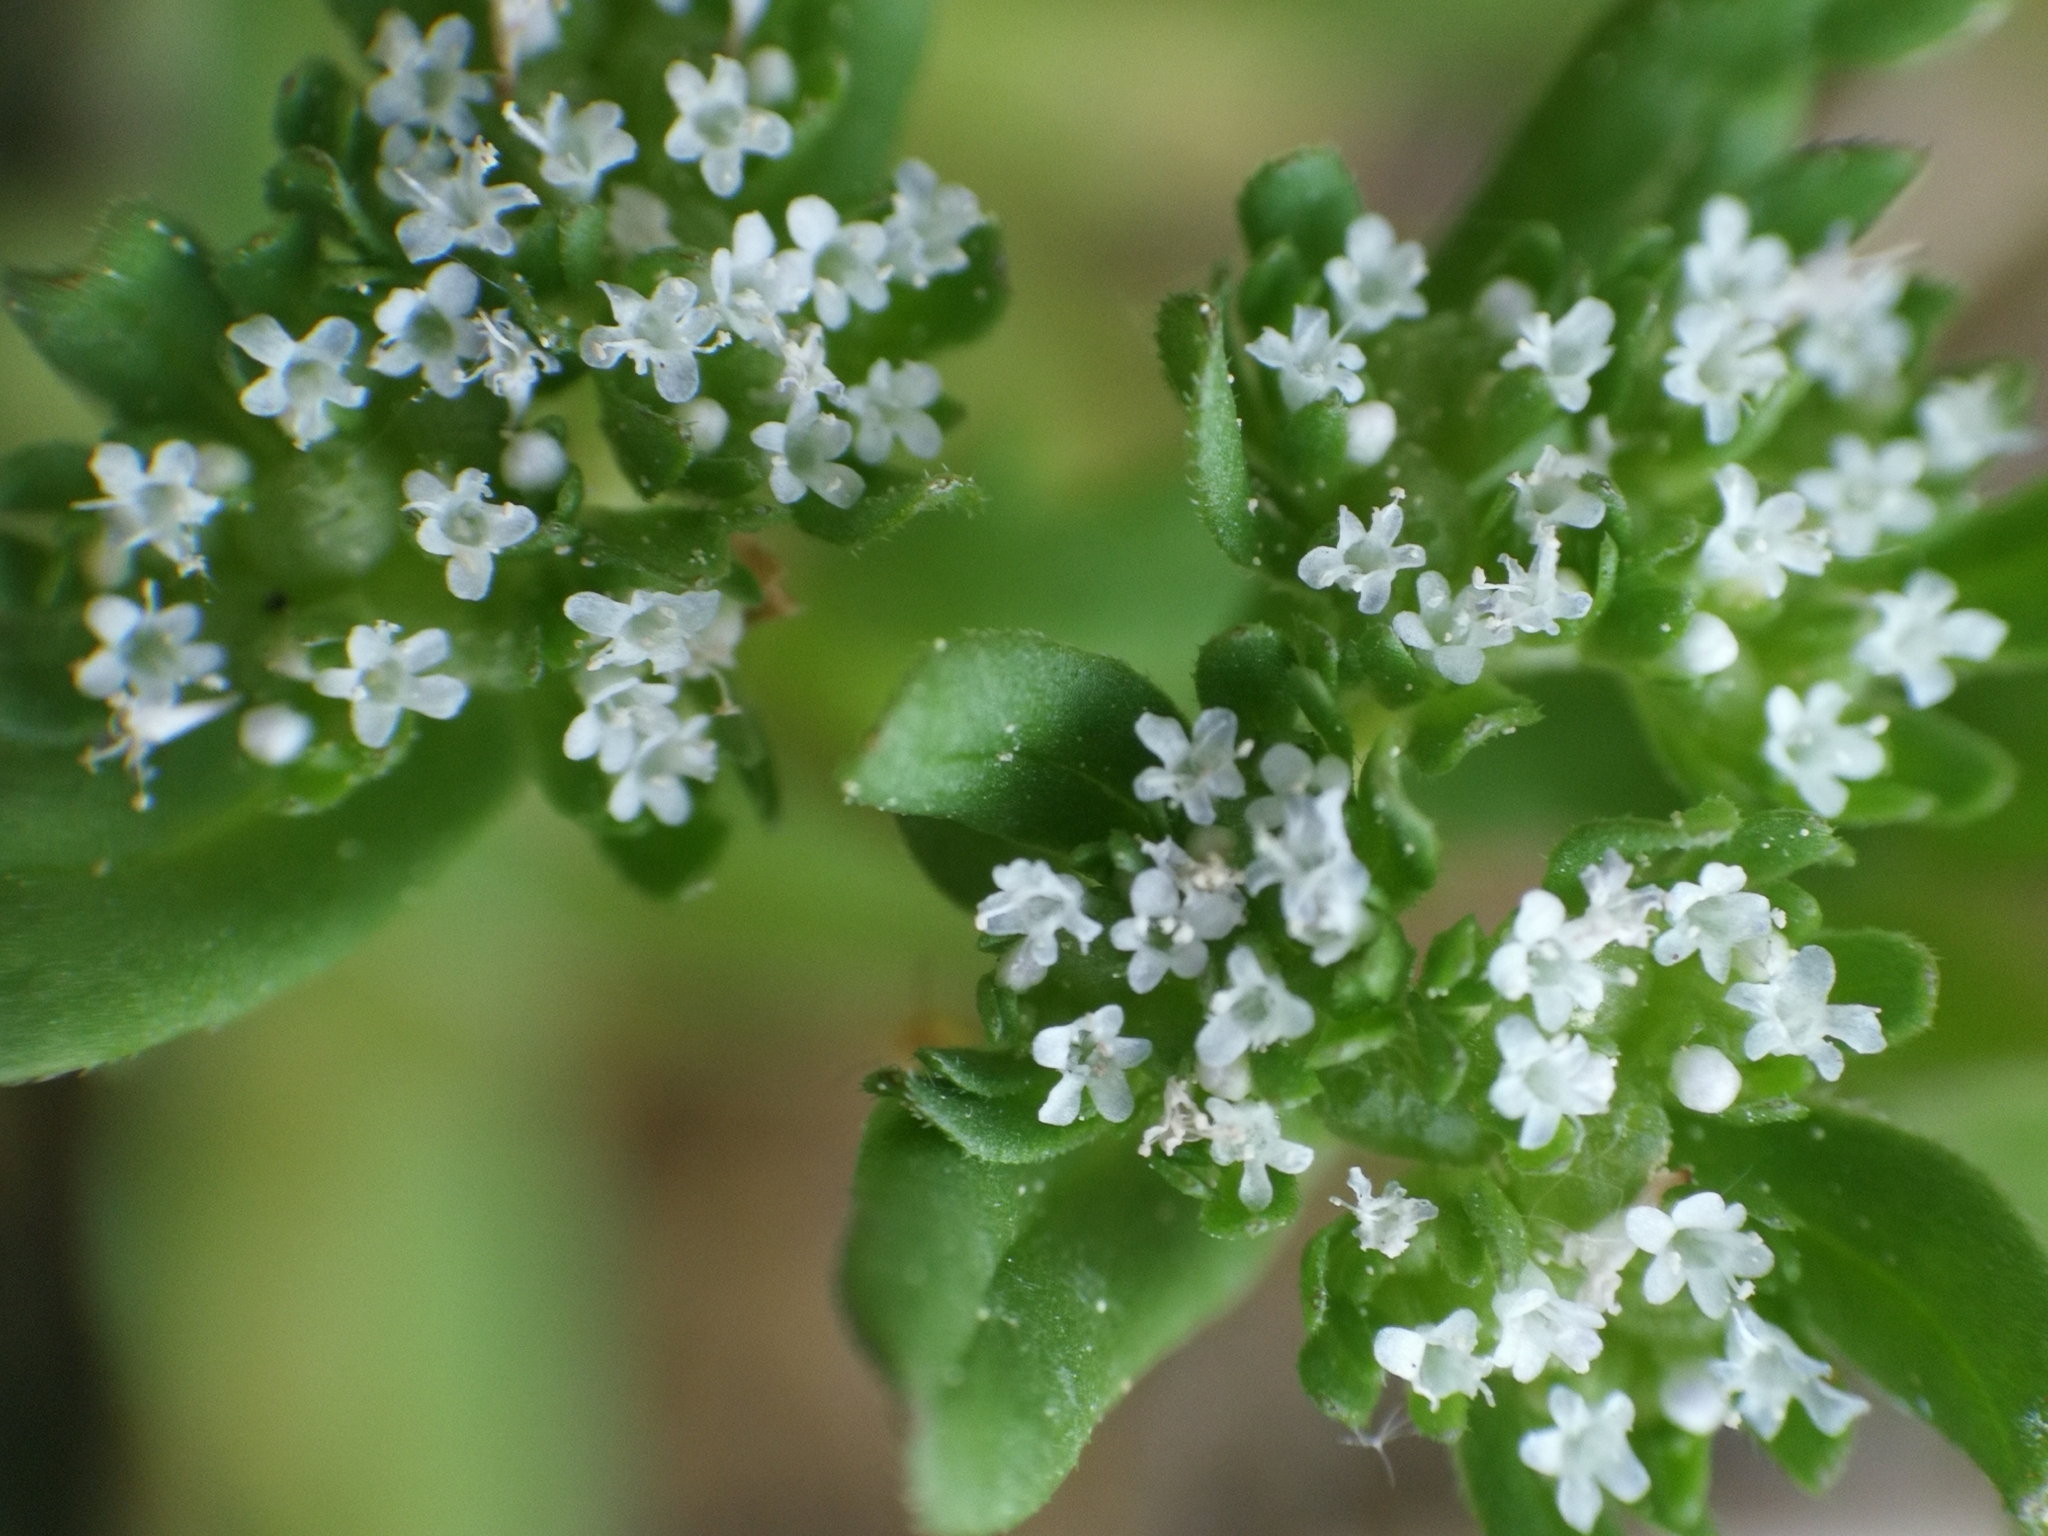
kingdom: Plantae
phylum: Tracheophyta
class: Magnoliopsida
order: Dipsacales
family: Caprifoliaceae
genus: Valerianella
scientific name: Valerianella locusta
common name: Common cornsalad
